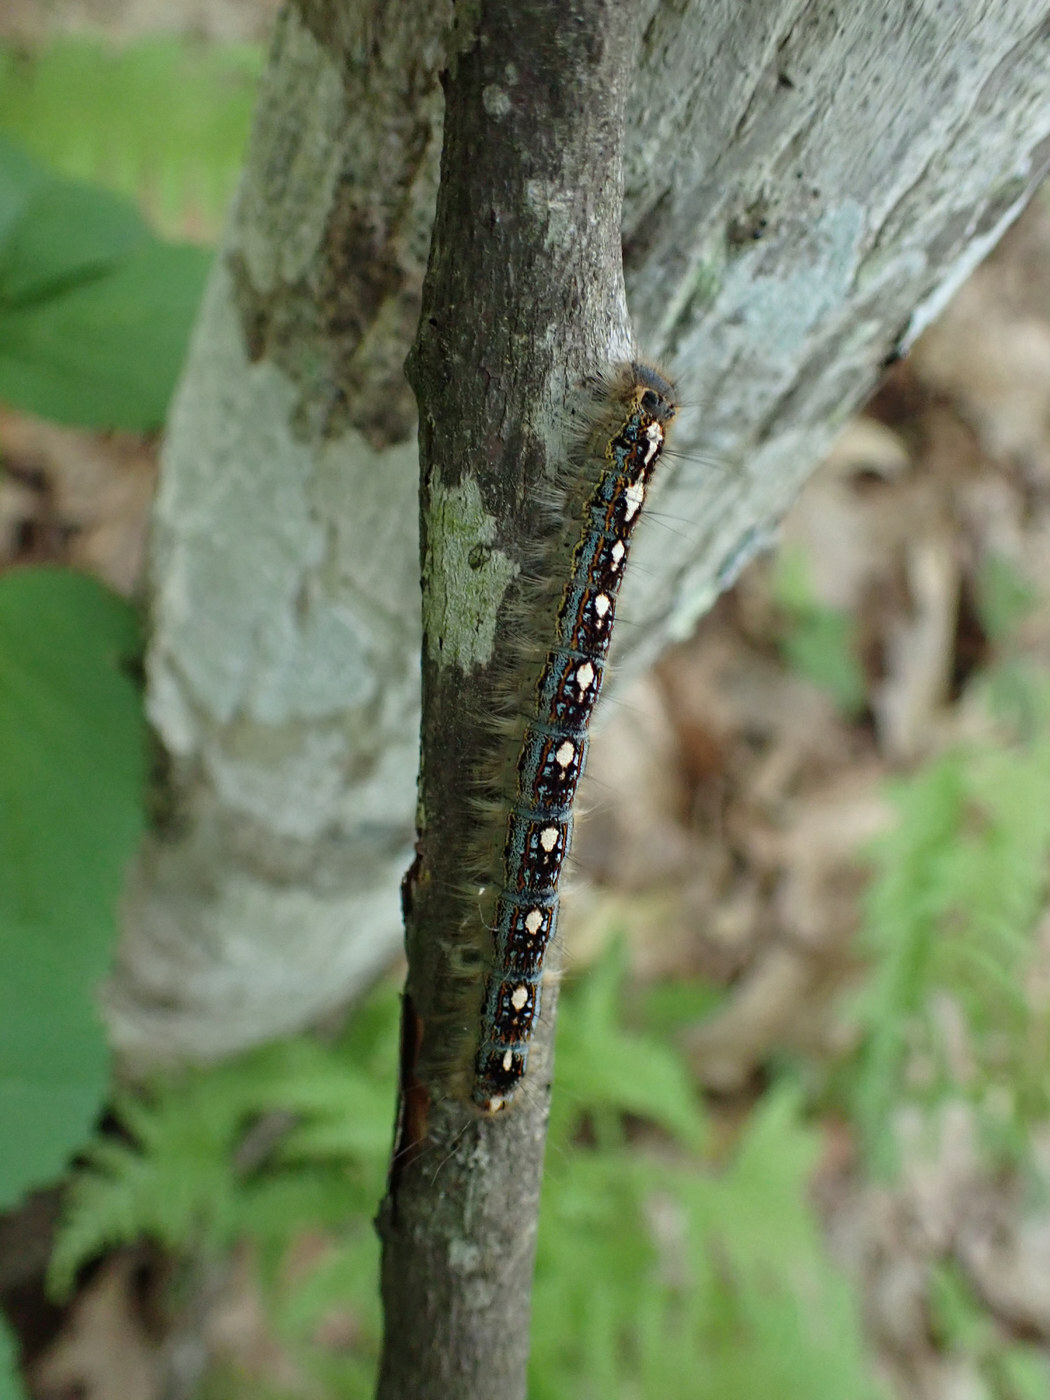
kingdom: Animalia
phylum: Arthropoda
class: Insecta
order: Lepidoptera
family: Lasiocampidae
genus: Malacosoma
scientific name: Malacosoma disstria
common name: Forest tent caterpillar
